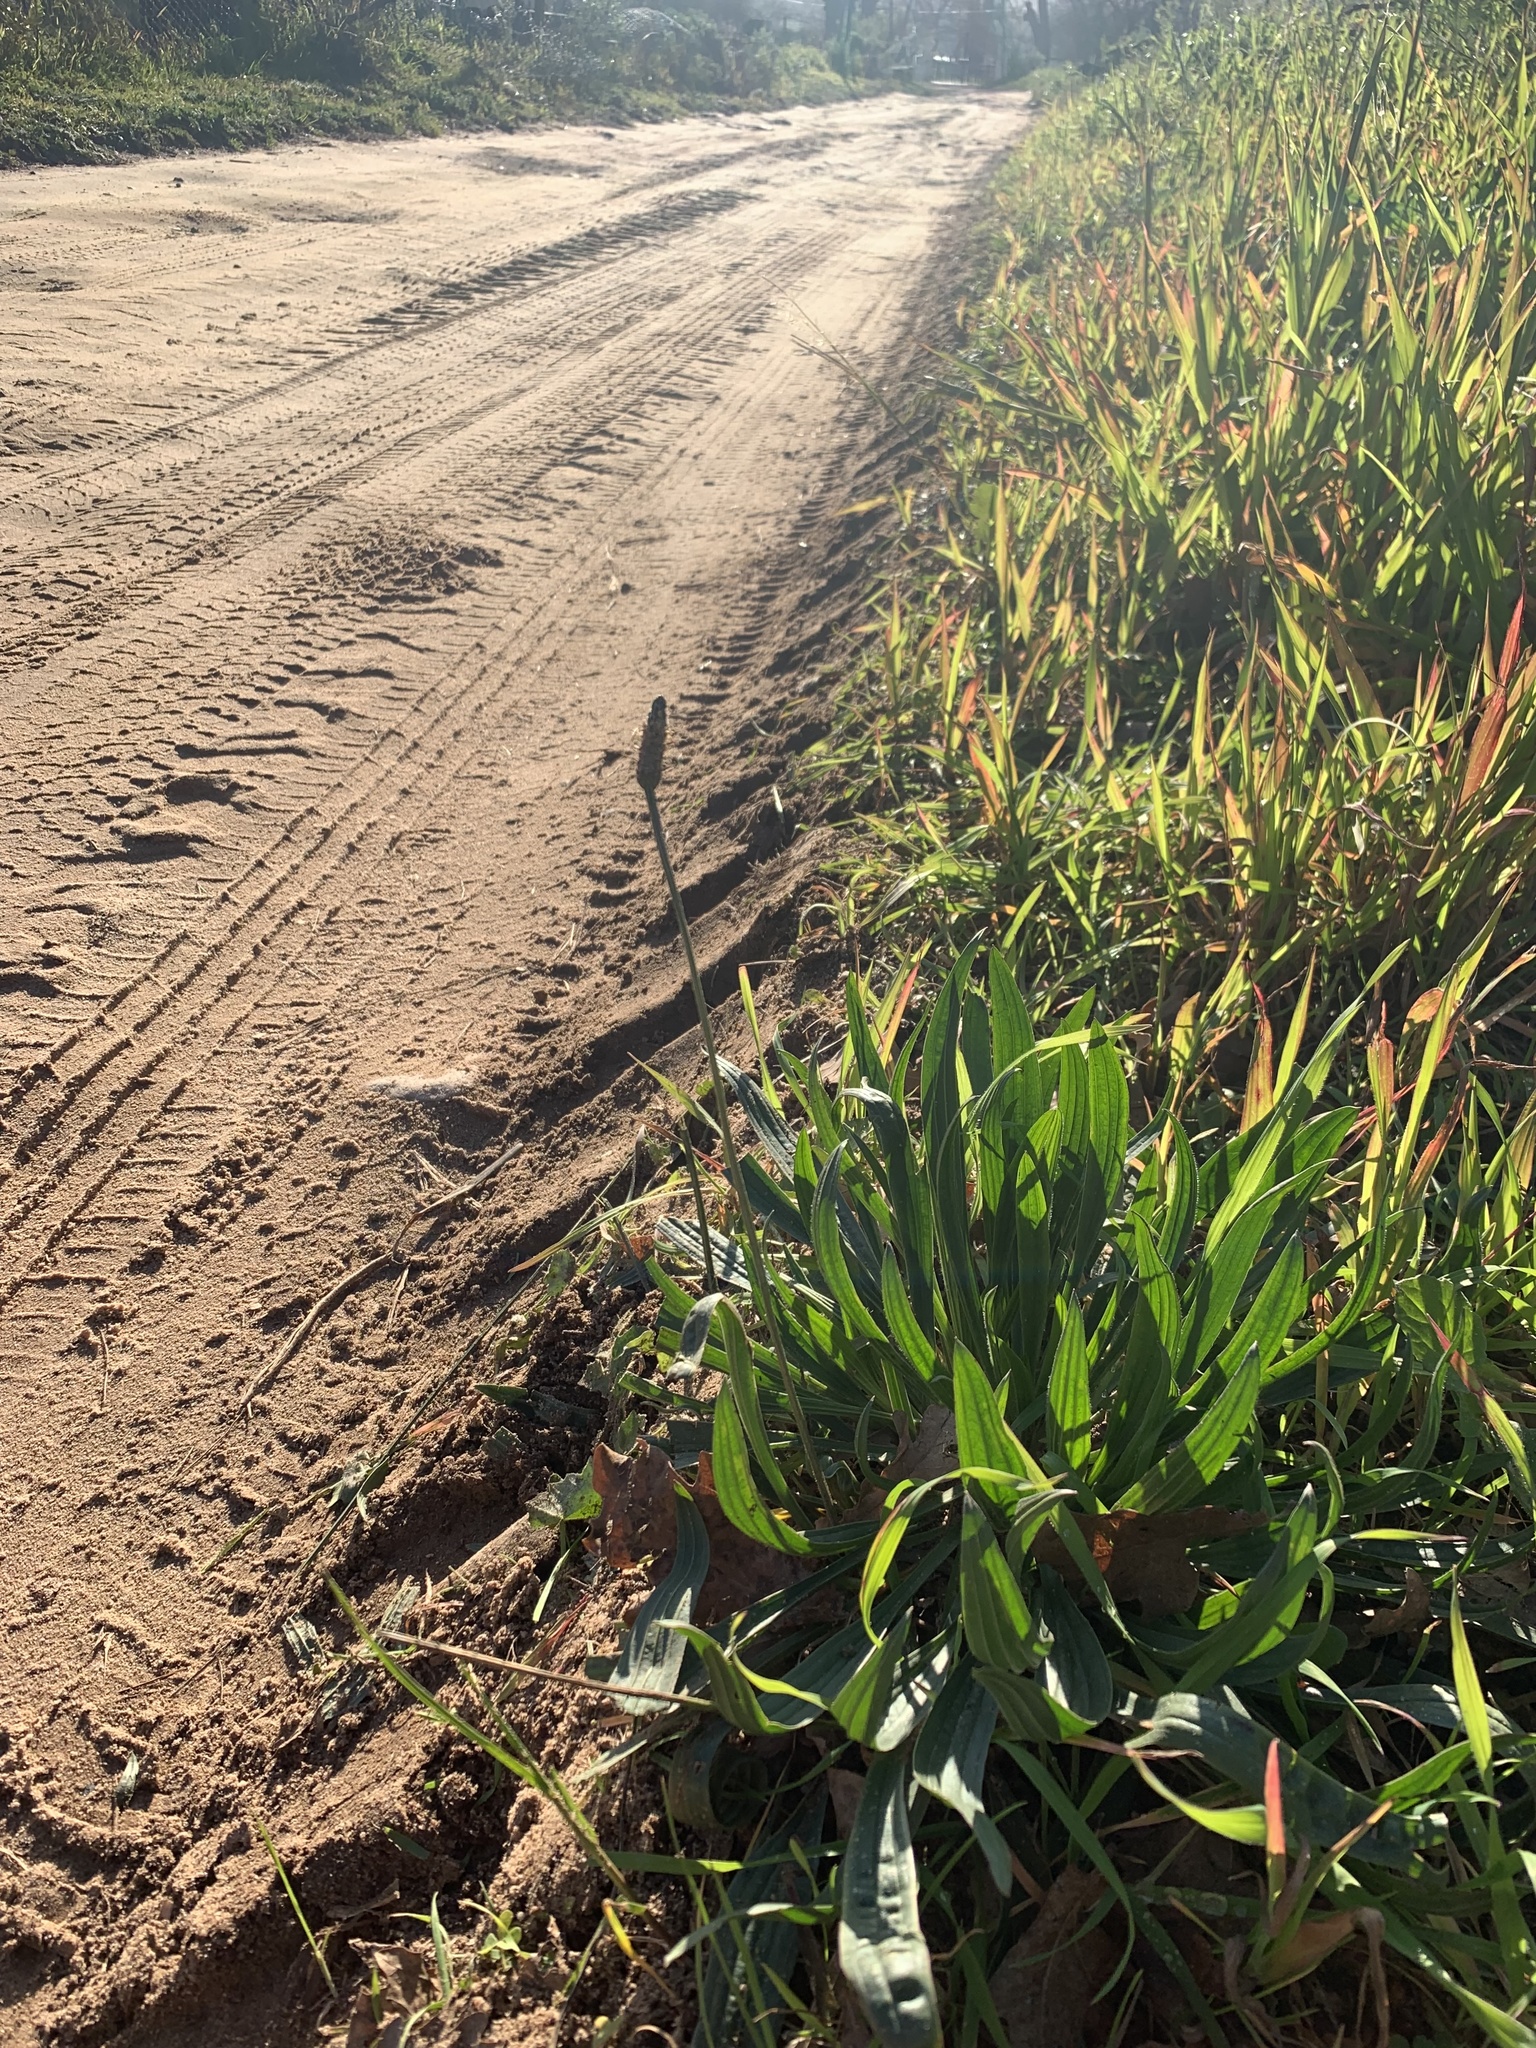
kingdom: Plantae
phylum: Tracheophyta
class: Magnoliopsida
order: Lamiales
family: Plantaginaceae
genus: Plantago
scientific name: Plantago lanceolata
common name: Ribwort plantain
